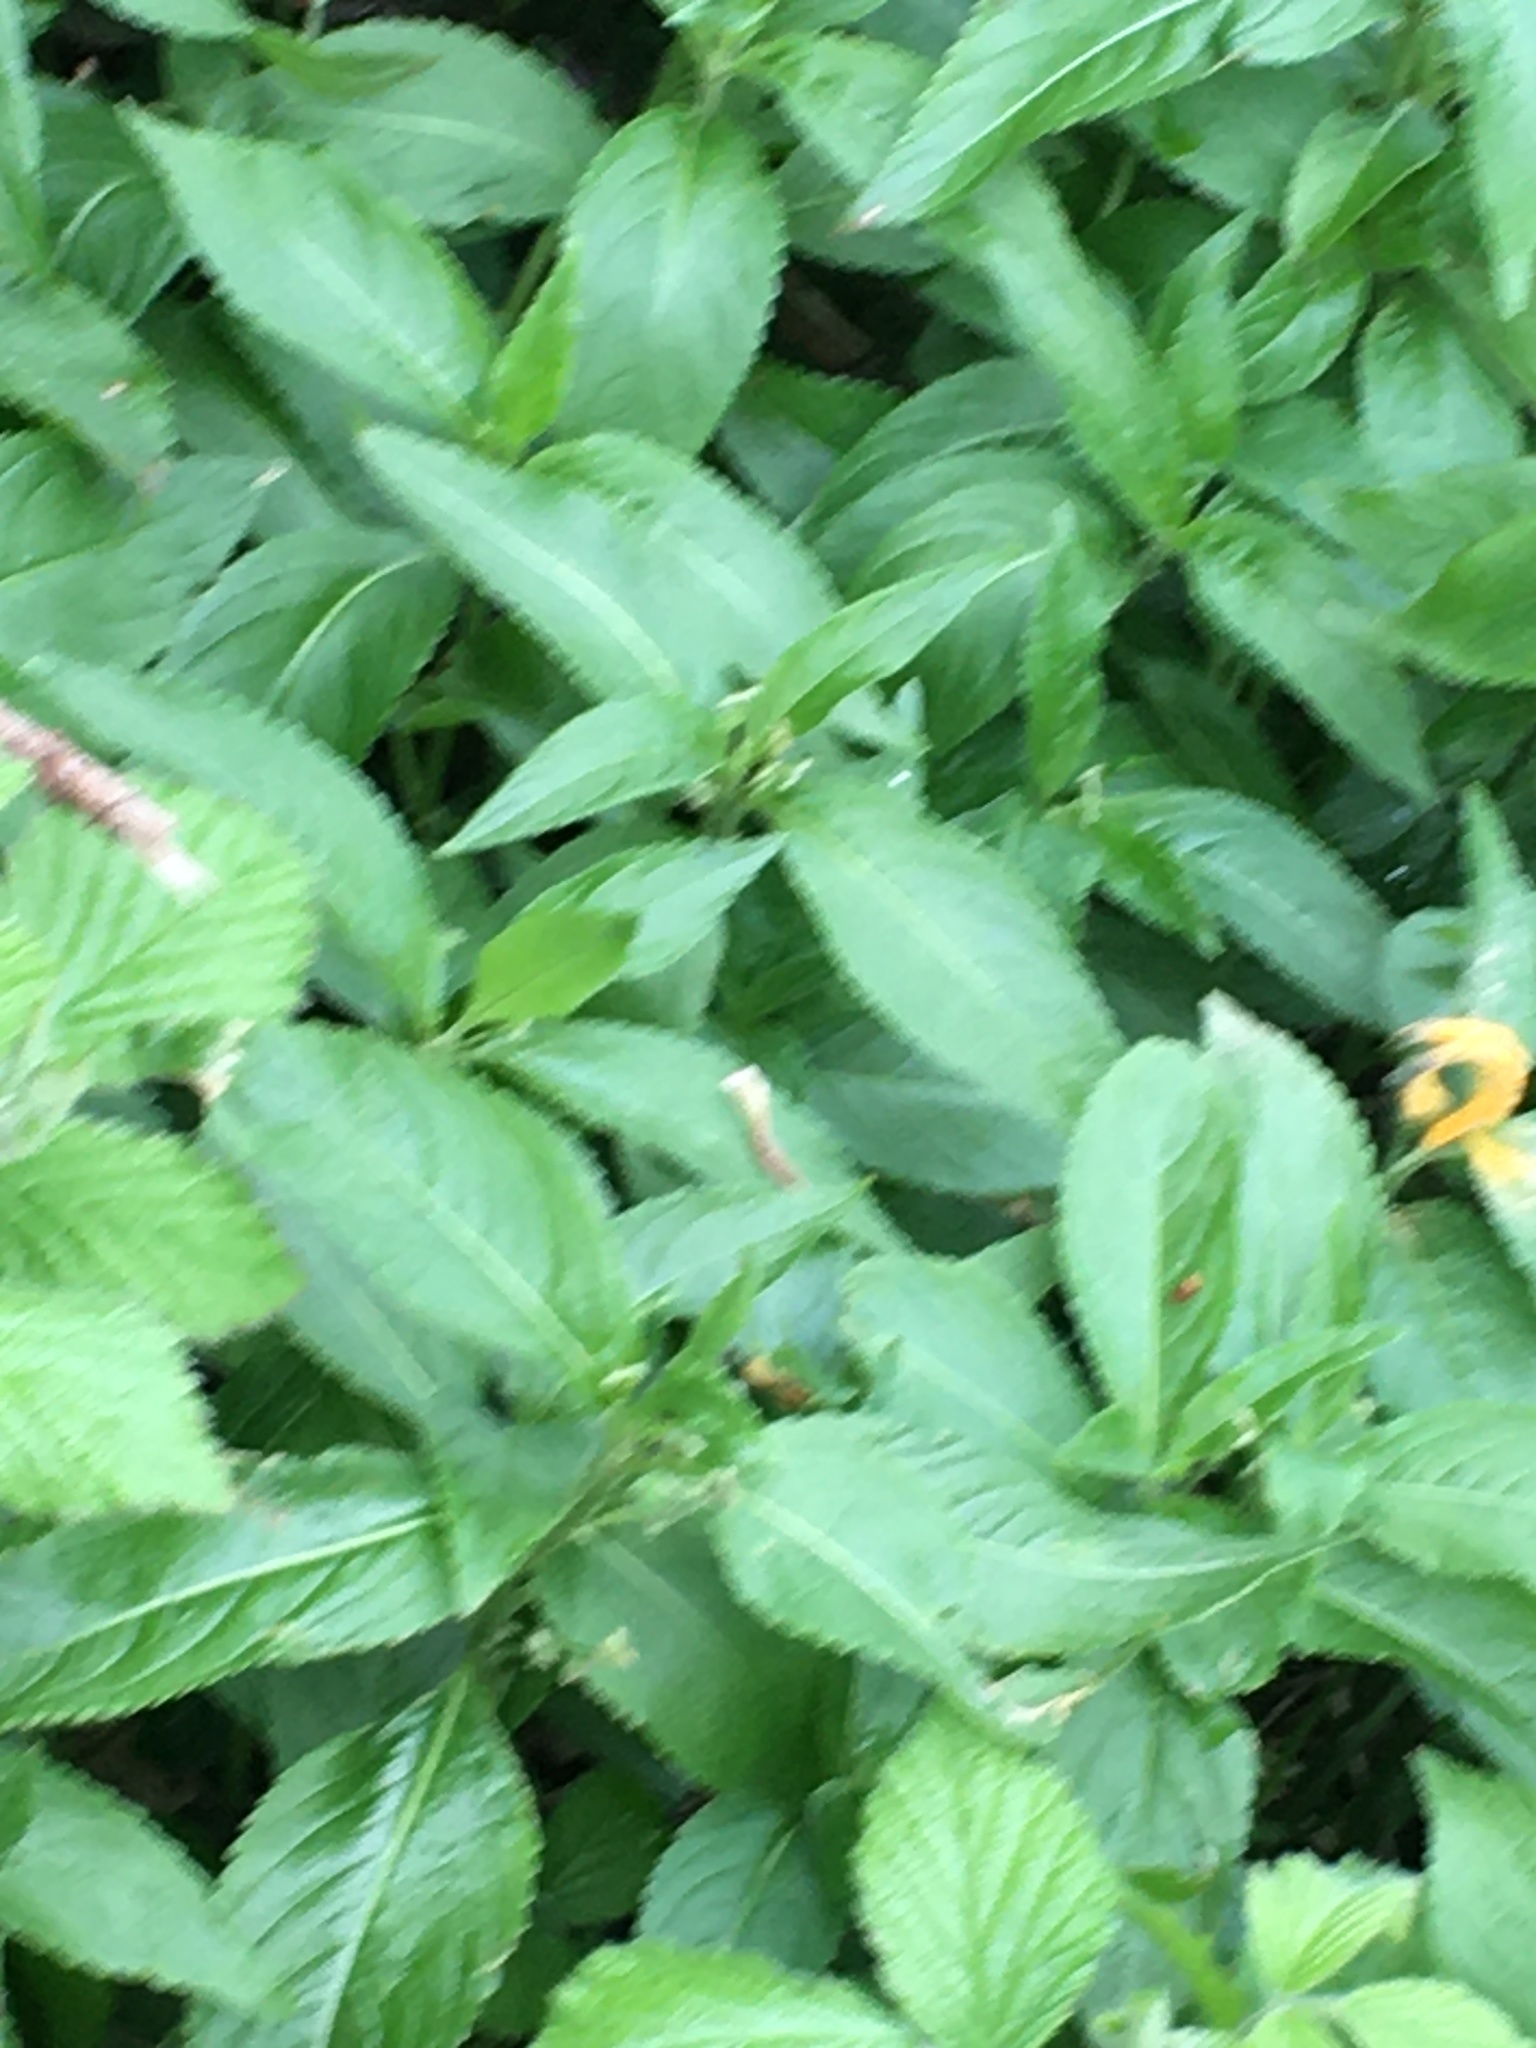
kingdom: Plantae
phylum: Tracheophyta
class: Magnoliopsida
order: Malpighiales
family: Euphorbiaceae
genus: Mercurialis
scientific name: Mercurialis perennis
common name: Dog mercury
